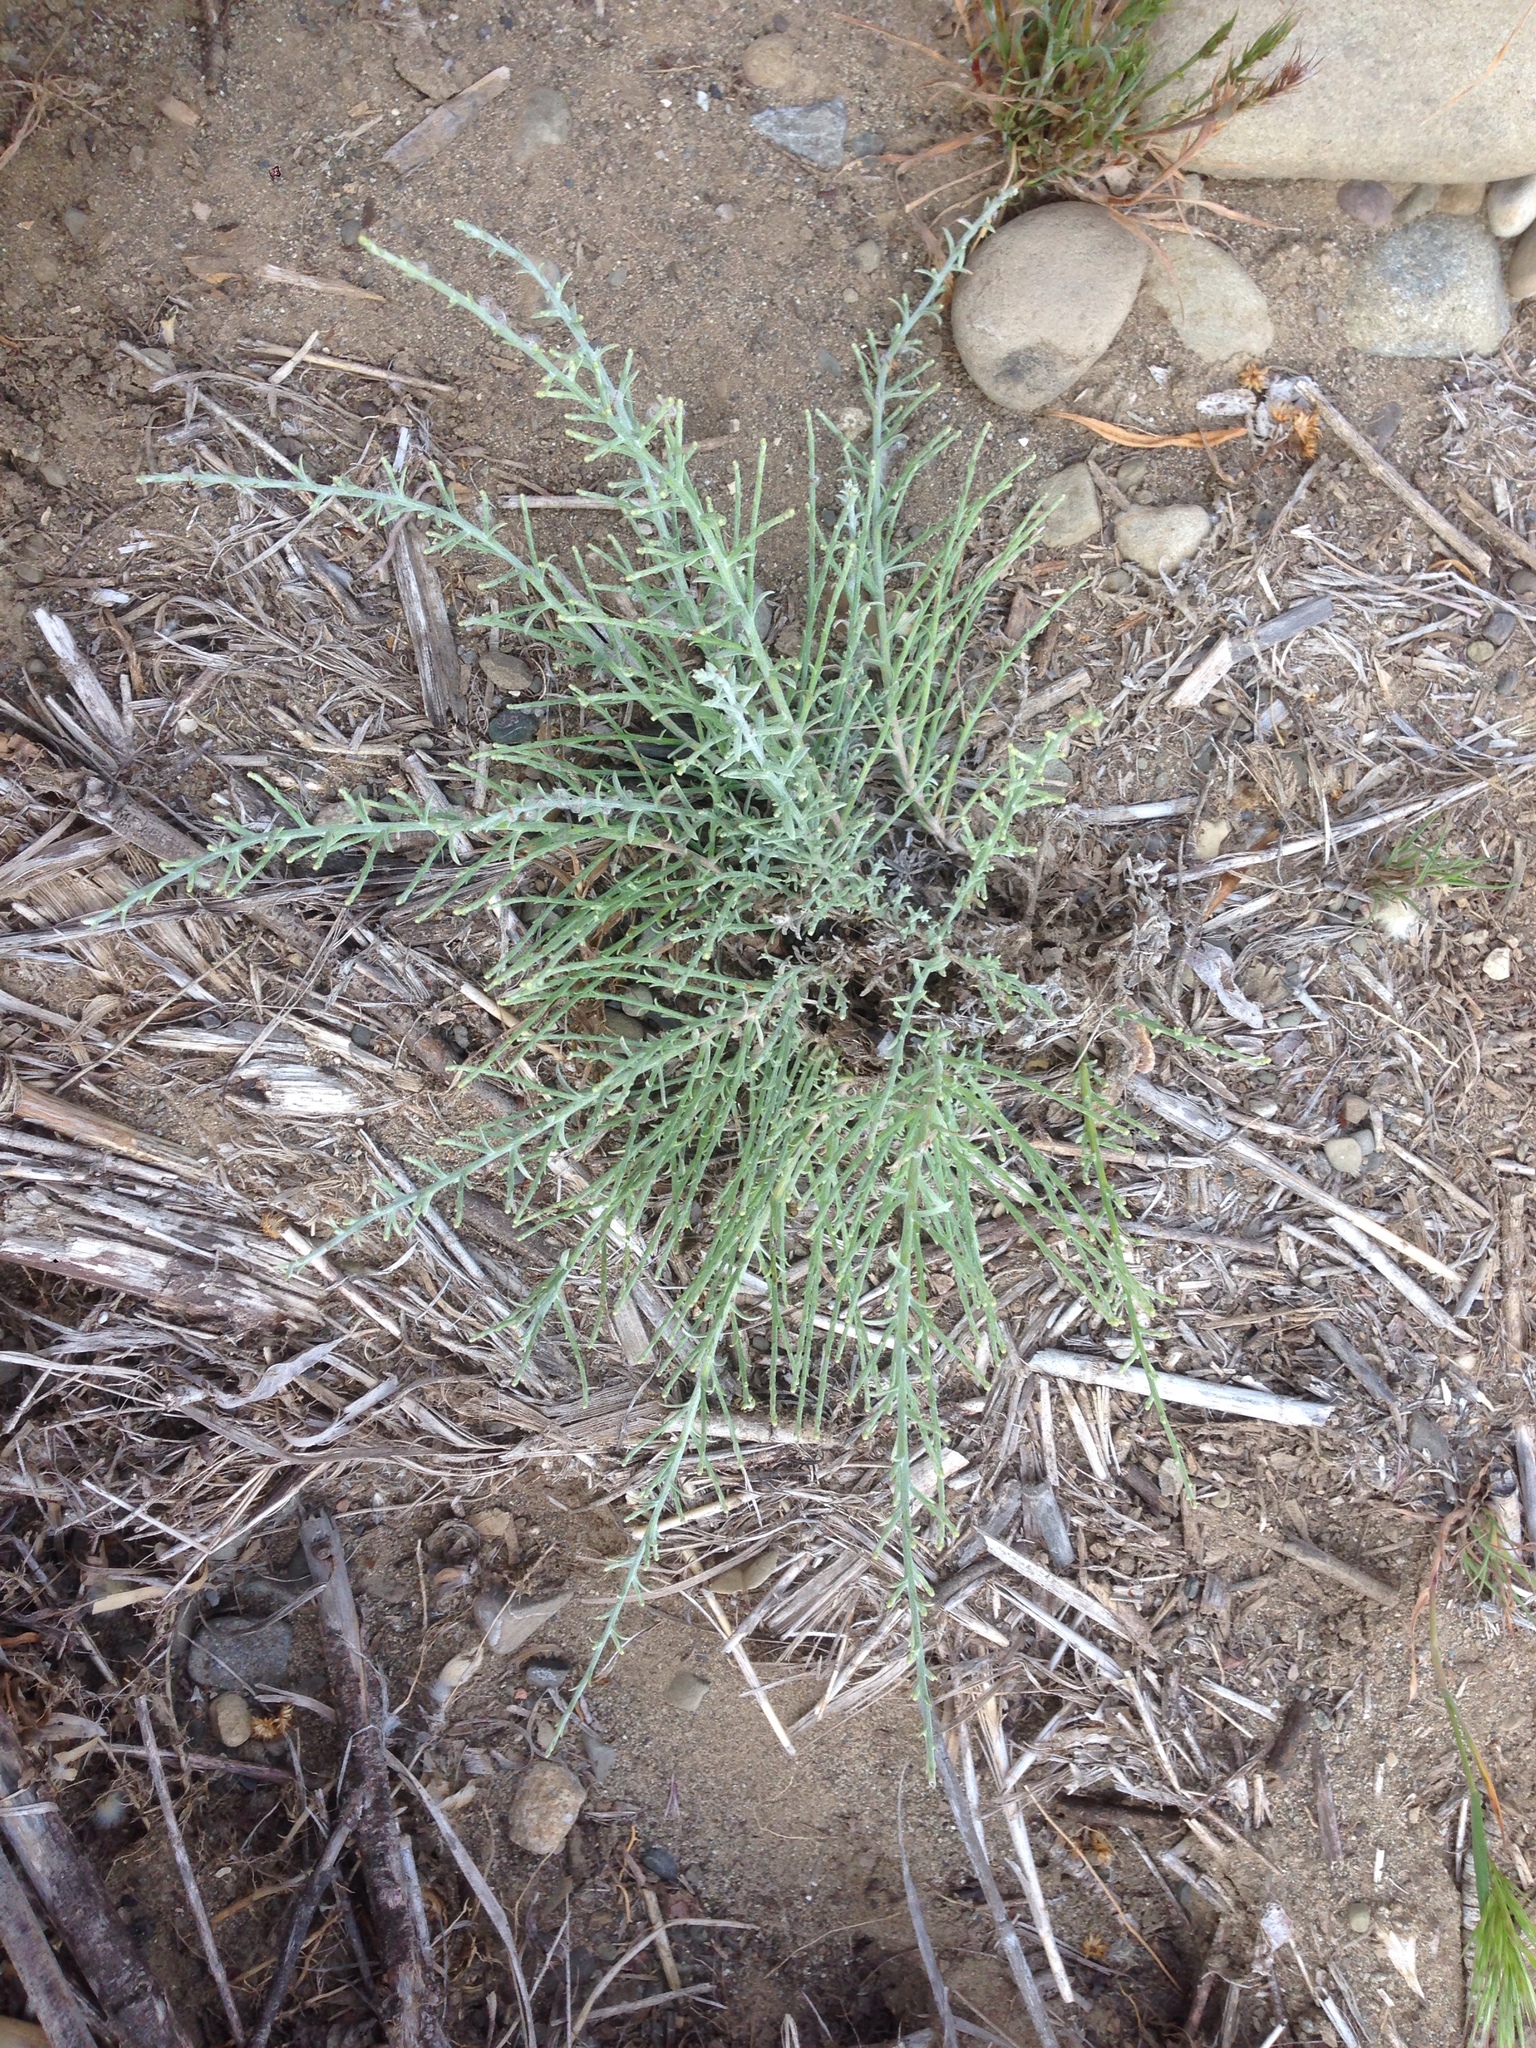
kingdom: Plantae
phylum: Tracheophyta
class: Magnoliopsida
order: Asterales
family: Asteraceae
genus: Lepidospartum
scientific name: Lepidospartum squamatum
